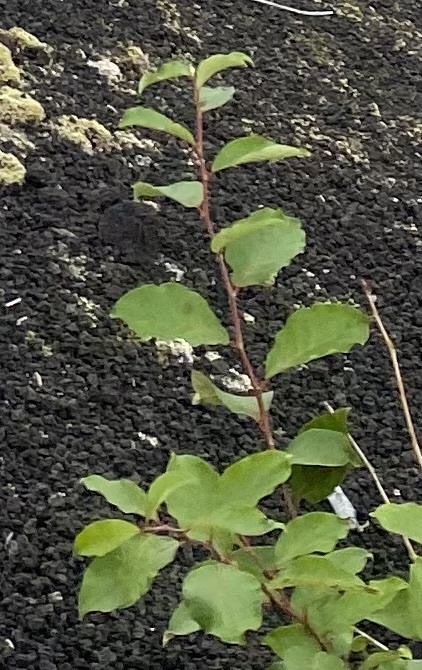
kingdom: Plantae
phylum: Tracheophyta
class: Magnoliopsida
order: Malpighiales
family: Salicaceae
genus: Populus
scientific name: Populus suaveolens
